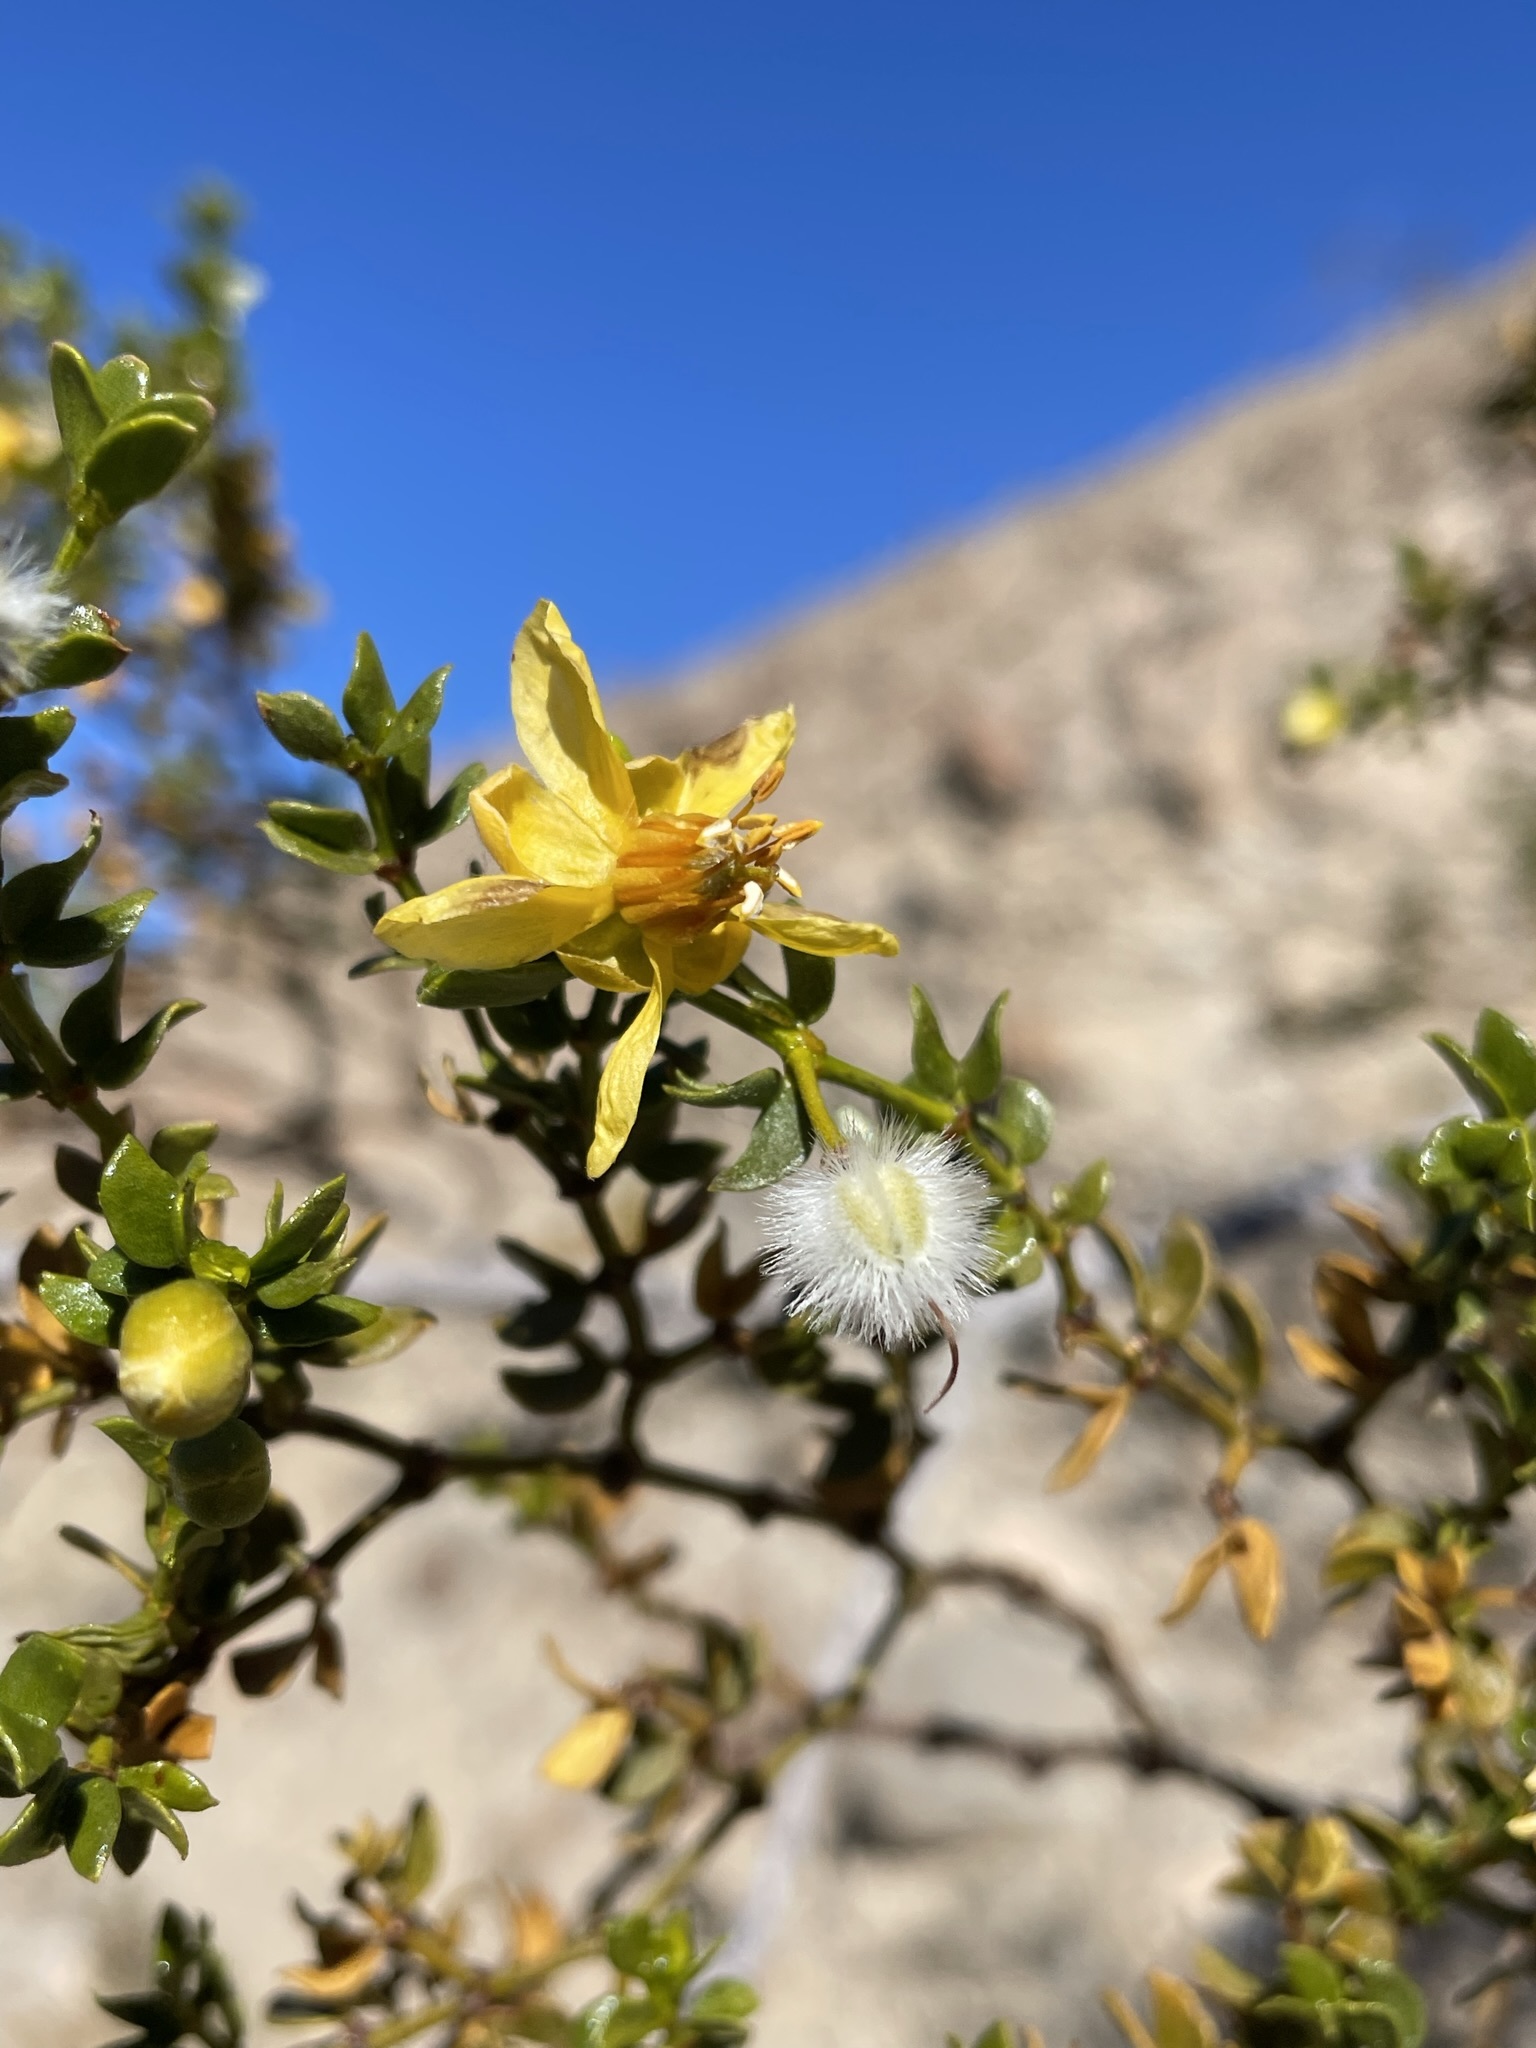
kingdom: Plantae
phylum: Tracheophyta
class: Magnoliopsida
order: Zygophyllales
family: Zygophyllaceae
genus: Larrea
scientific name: Larrea tridentata
